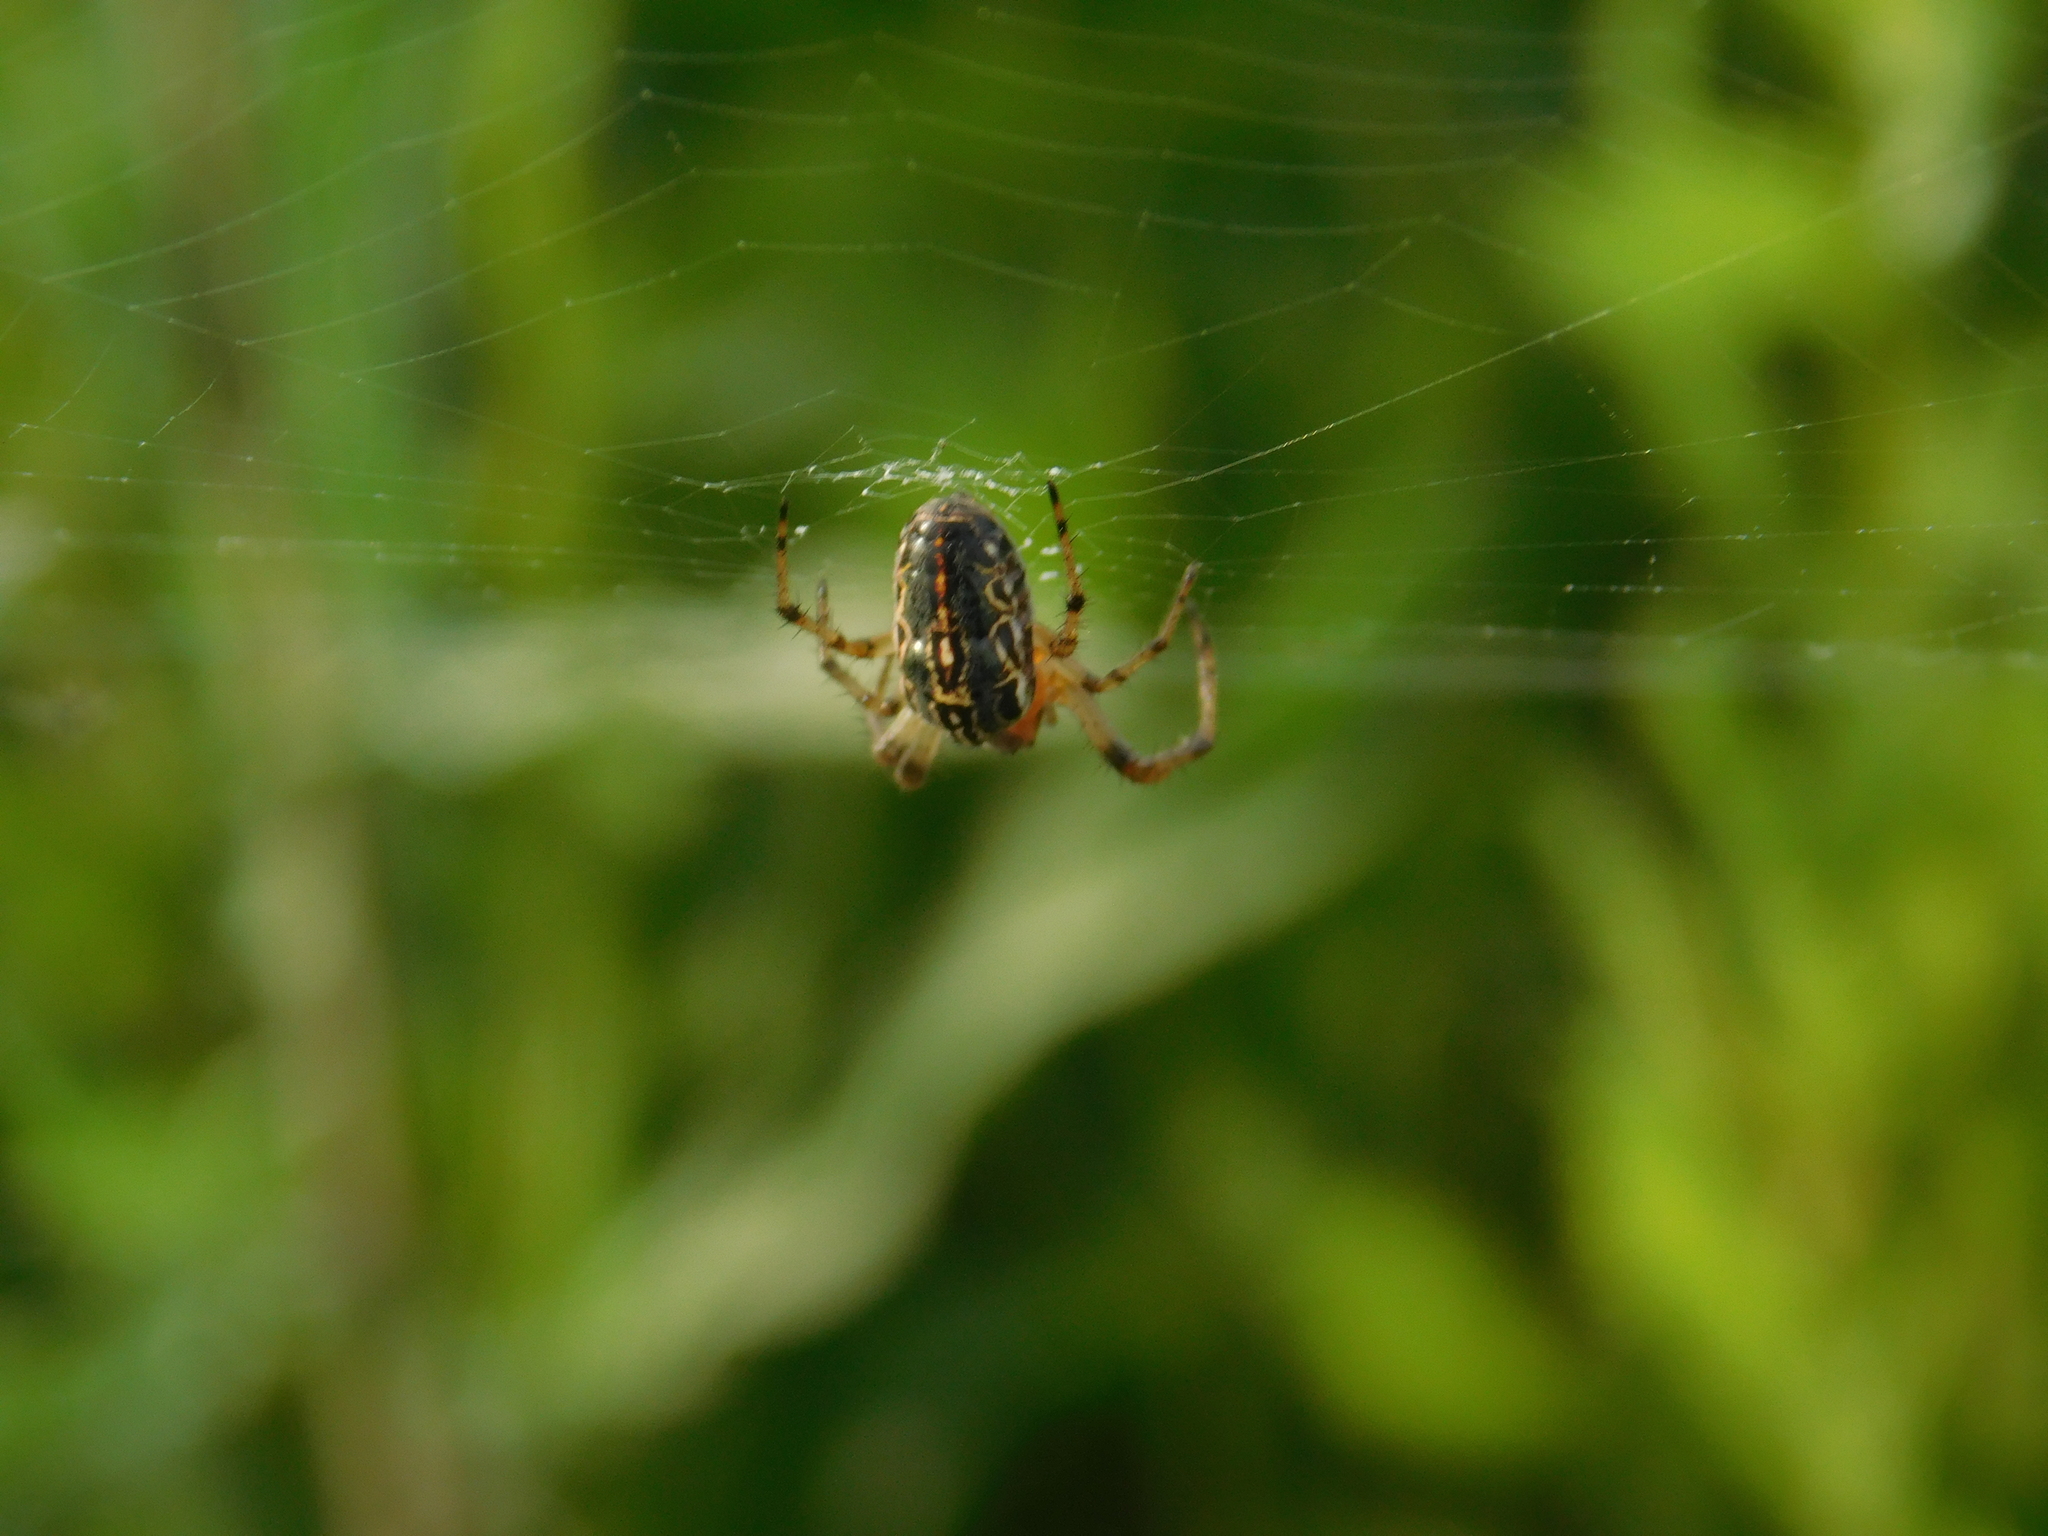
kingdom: Animalia
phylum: Arthropoda
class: Arachnida
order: Araneae
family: Araneidae
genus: Alpaida
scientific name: Alpaida veniliae
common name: Orb weavers
